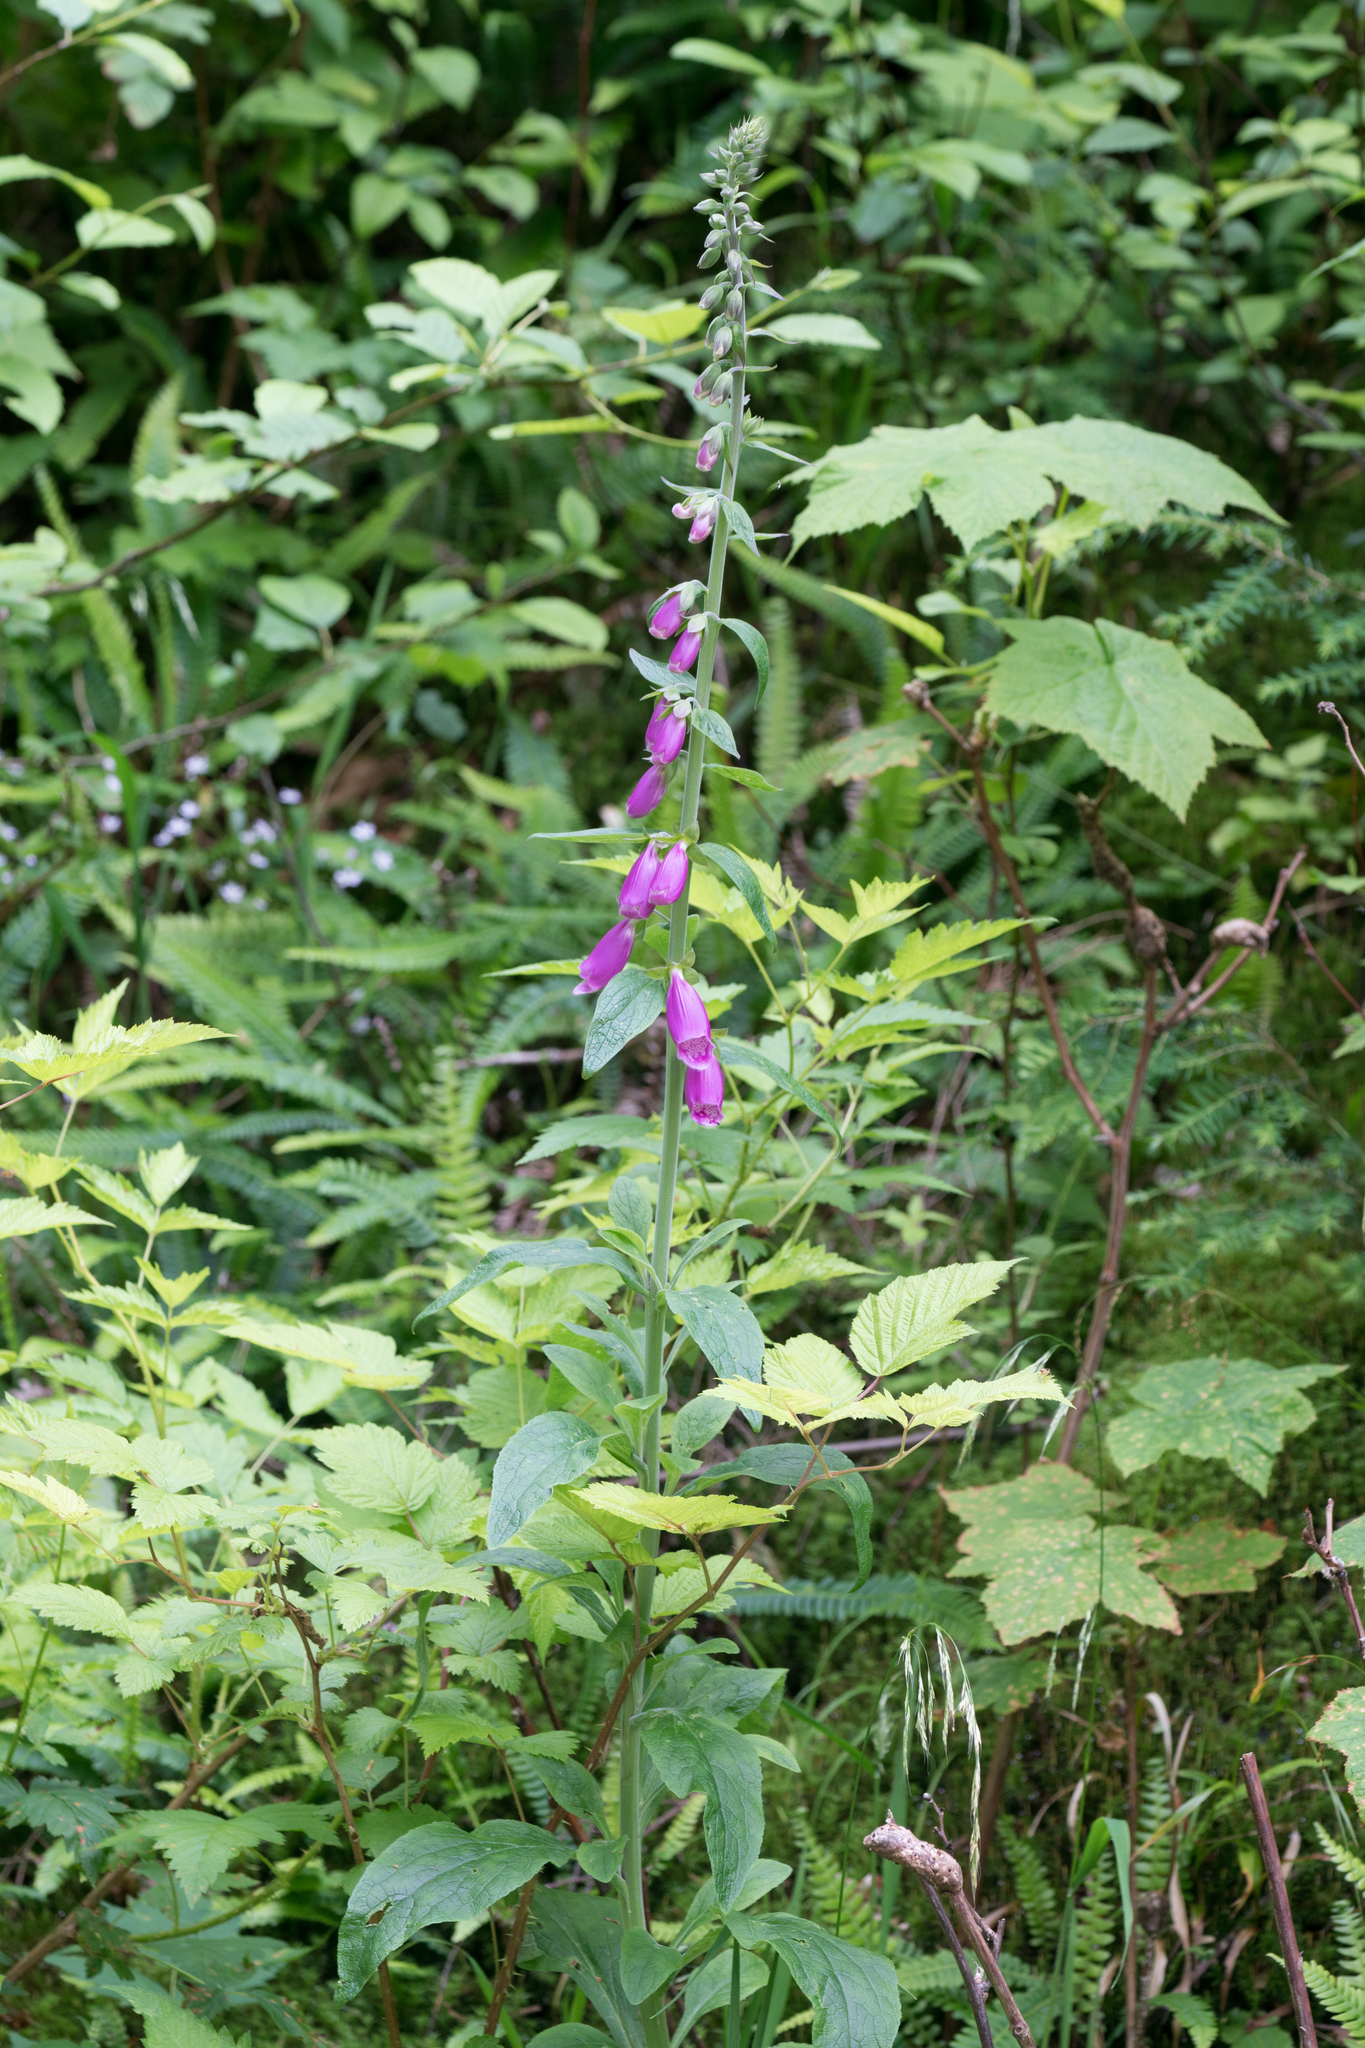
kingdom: Plantae
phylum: Tracheophyta
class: Magnoliopsida
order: Lamiales
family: Plantaginaceae
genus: Digitalis
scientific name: Digitalis purpurea
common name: Foxglove
